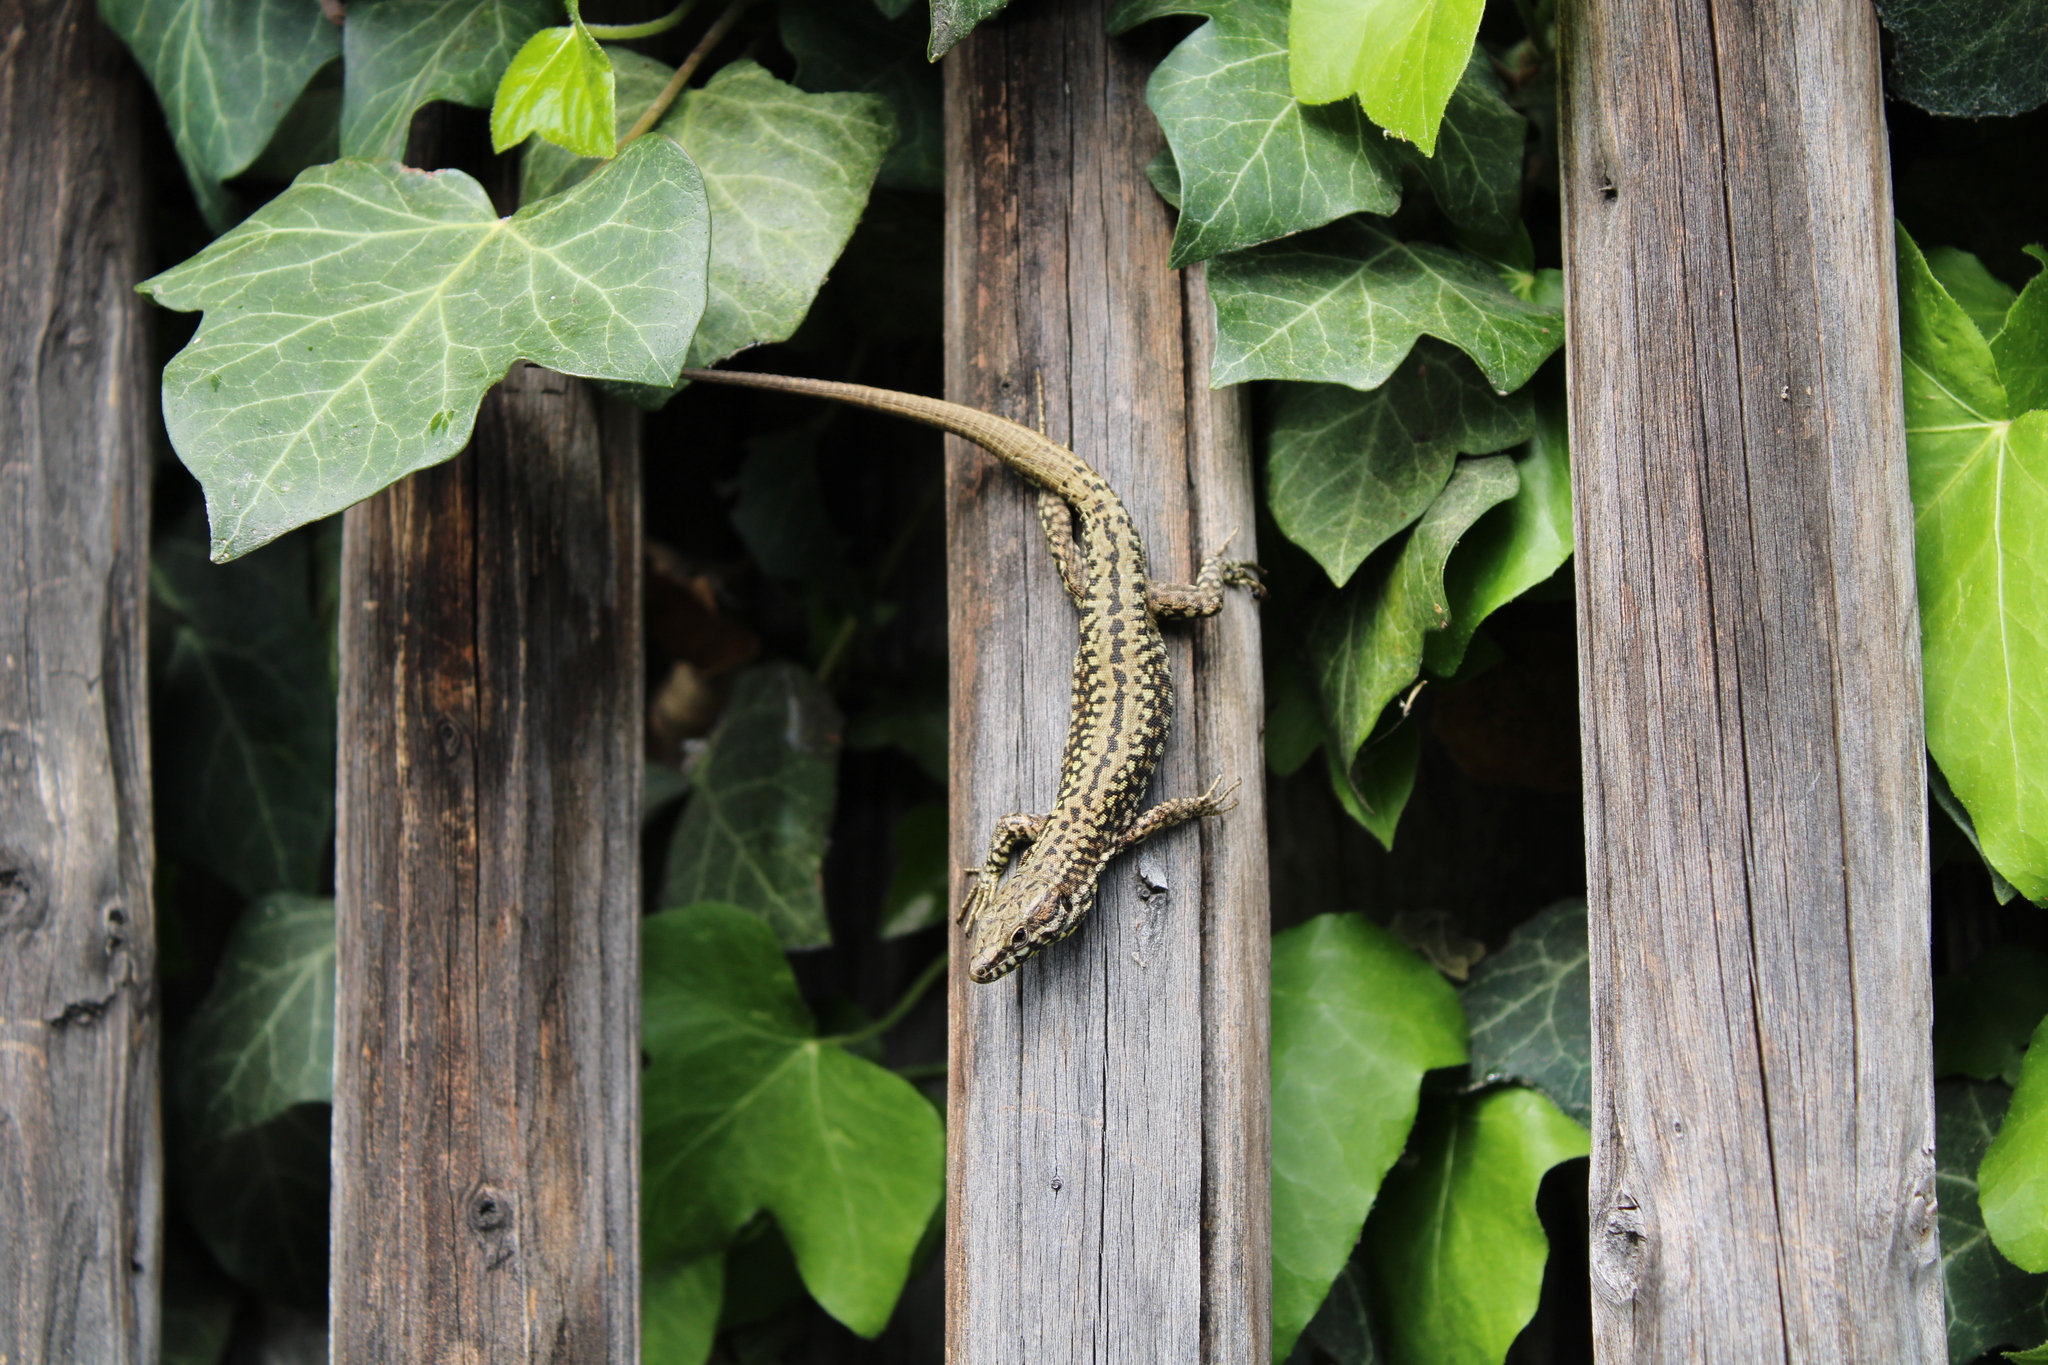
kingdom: Animalia
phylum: Chordata
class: Squamata
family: Lacertidae
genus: Podarcis
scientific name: Podarcis muralis
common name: Common wall lizard
